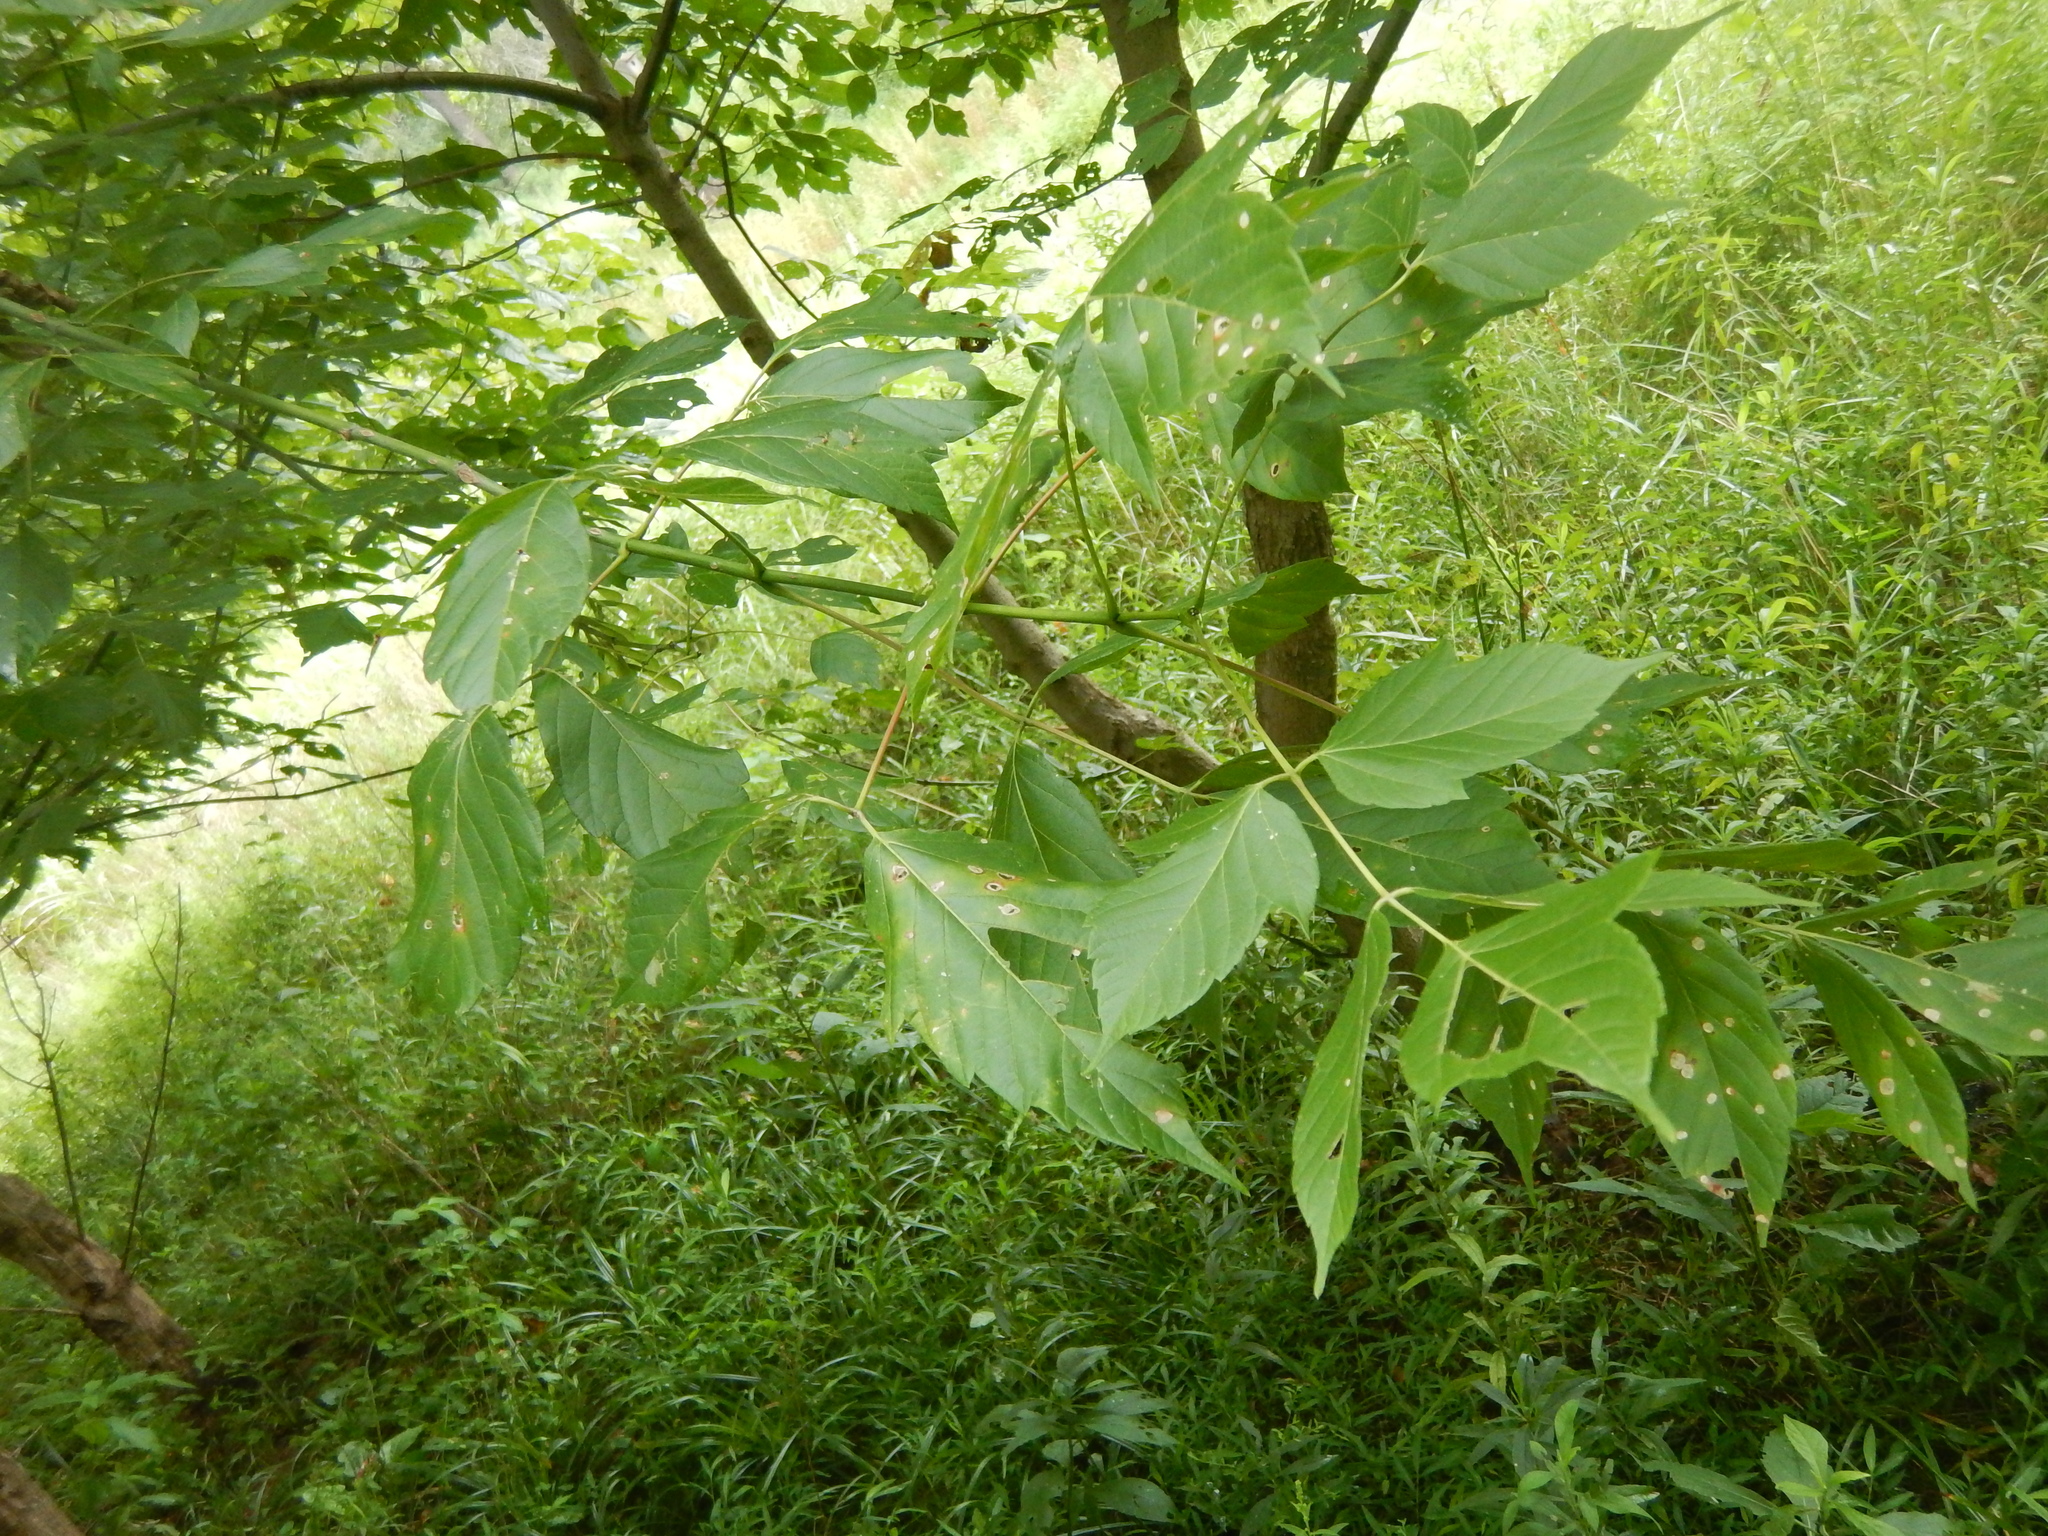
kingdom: Plantae
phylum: Tracheophyta
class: Magnoliopsida
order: Sapindales
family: Sapindaceae
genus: Acer
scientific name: Acer negundo
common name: Ashleaf maple
